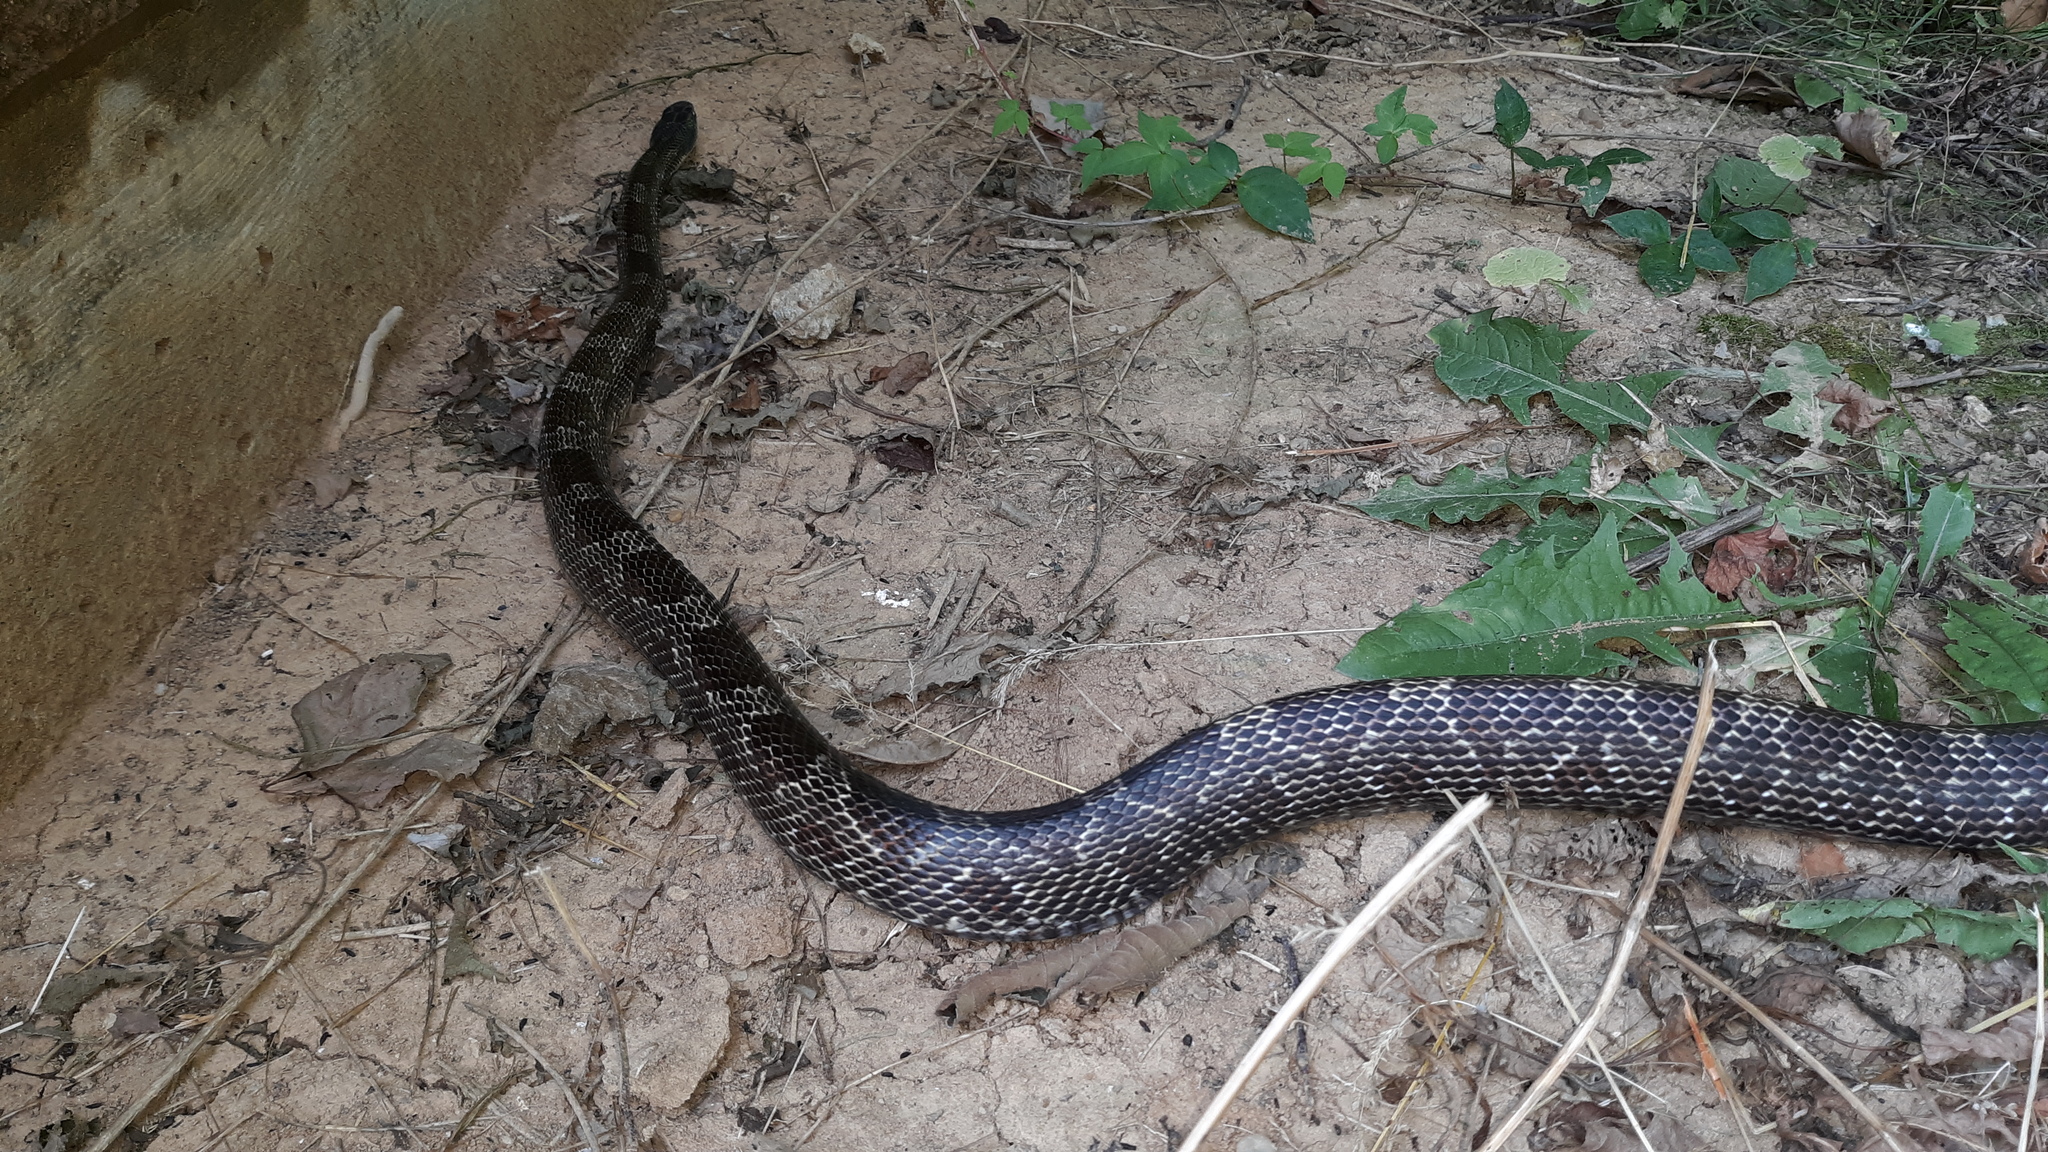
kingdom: Animalia
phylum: Chordata
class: Squamata
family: Colubridae
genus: Pantherophis
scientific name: Pantherophis spiloides
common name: Gray rat snake
